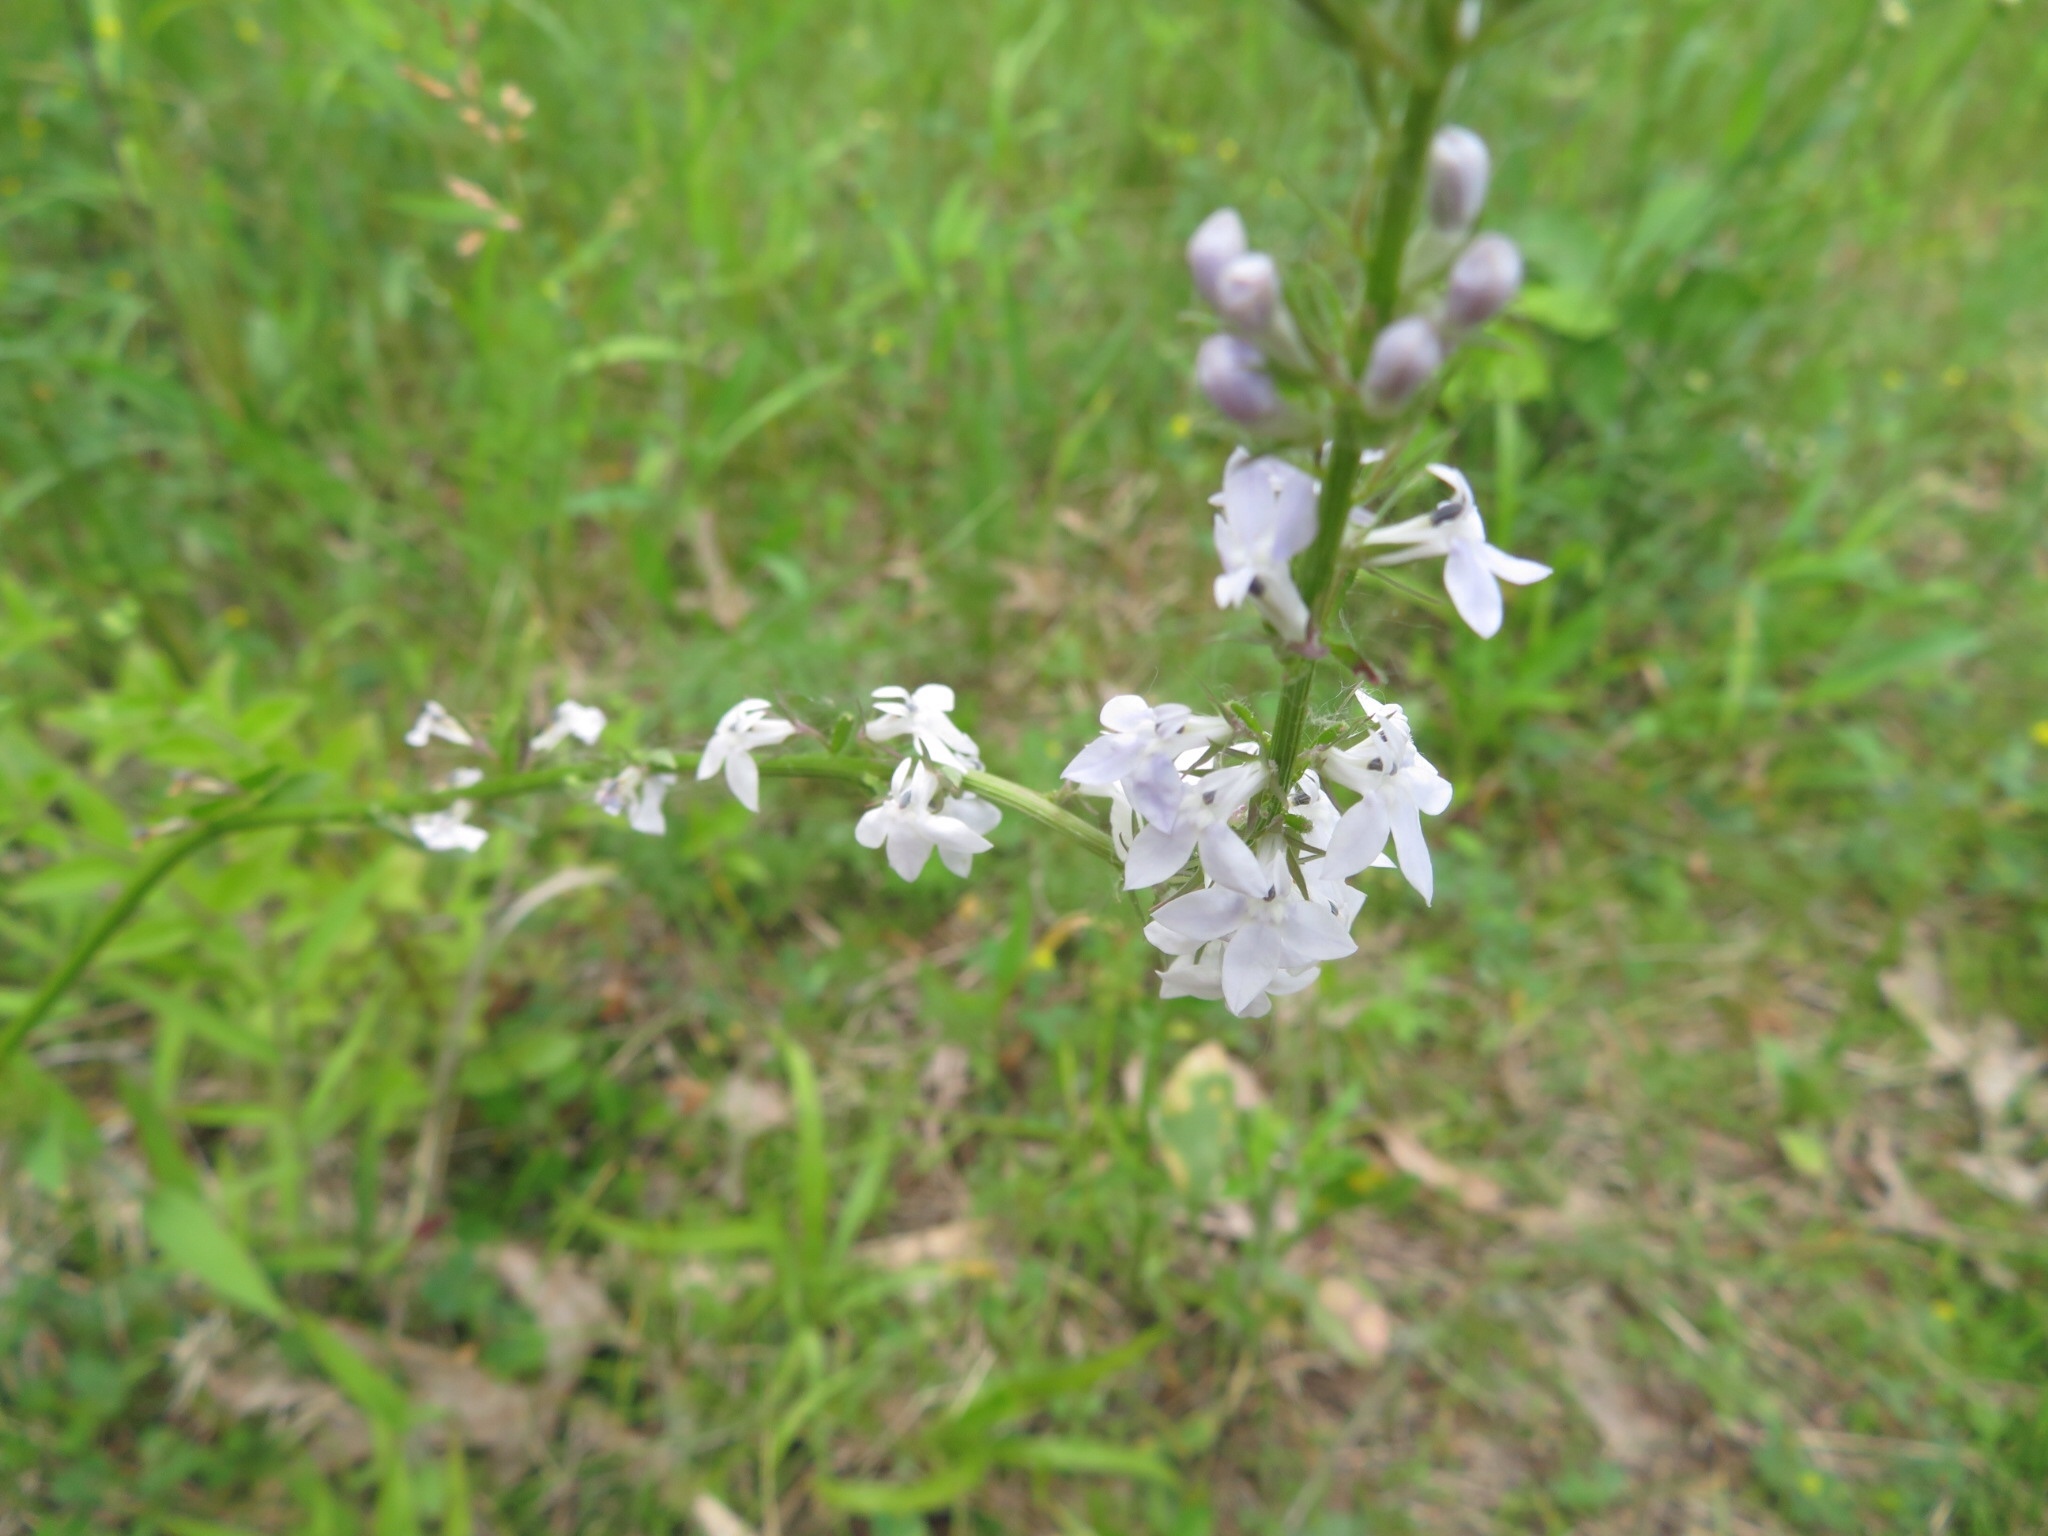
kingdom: Plantae
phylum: Tracheophyta
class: Magnoliopsida
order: Asterales
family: Campanulaceae
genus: Lobelia
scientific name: Lobelia spicata
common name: Pale-spike lobelia
